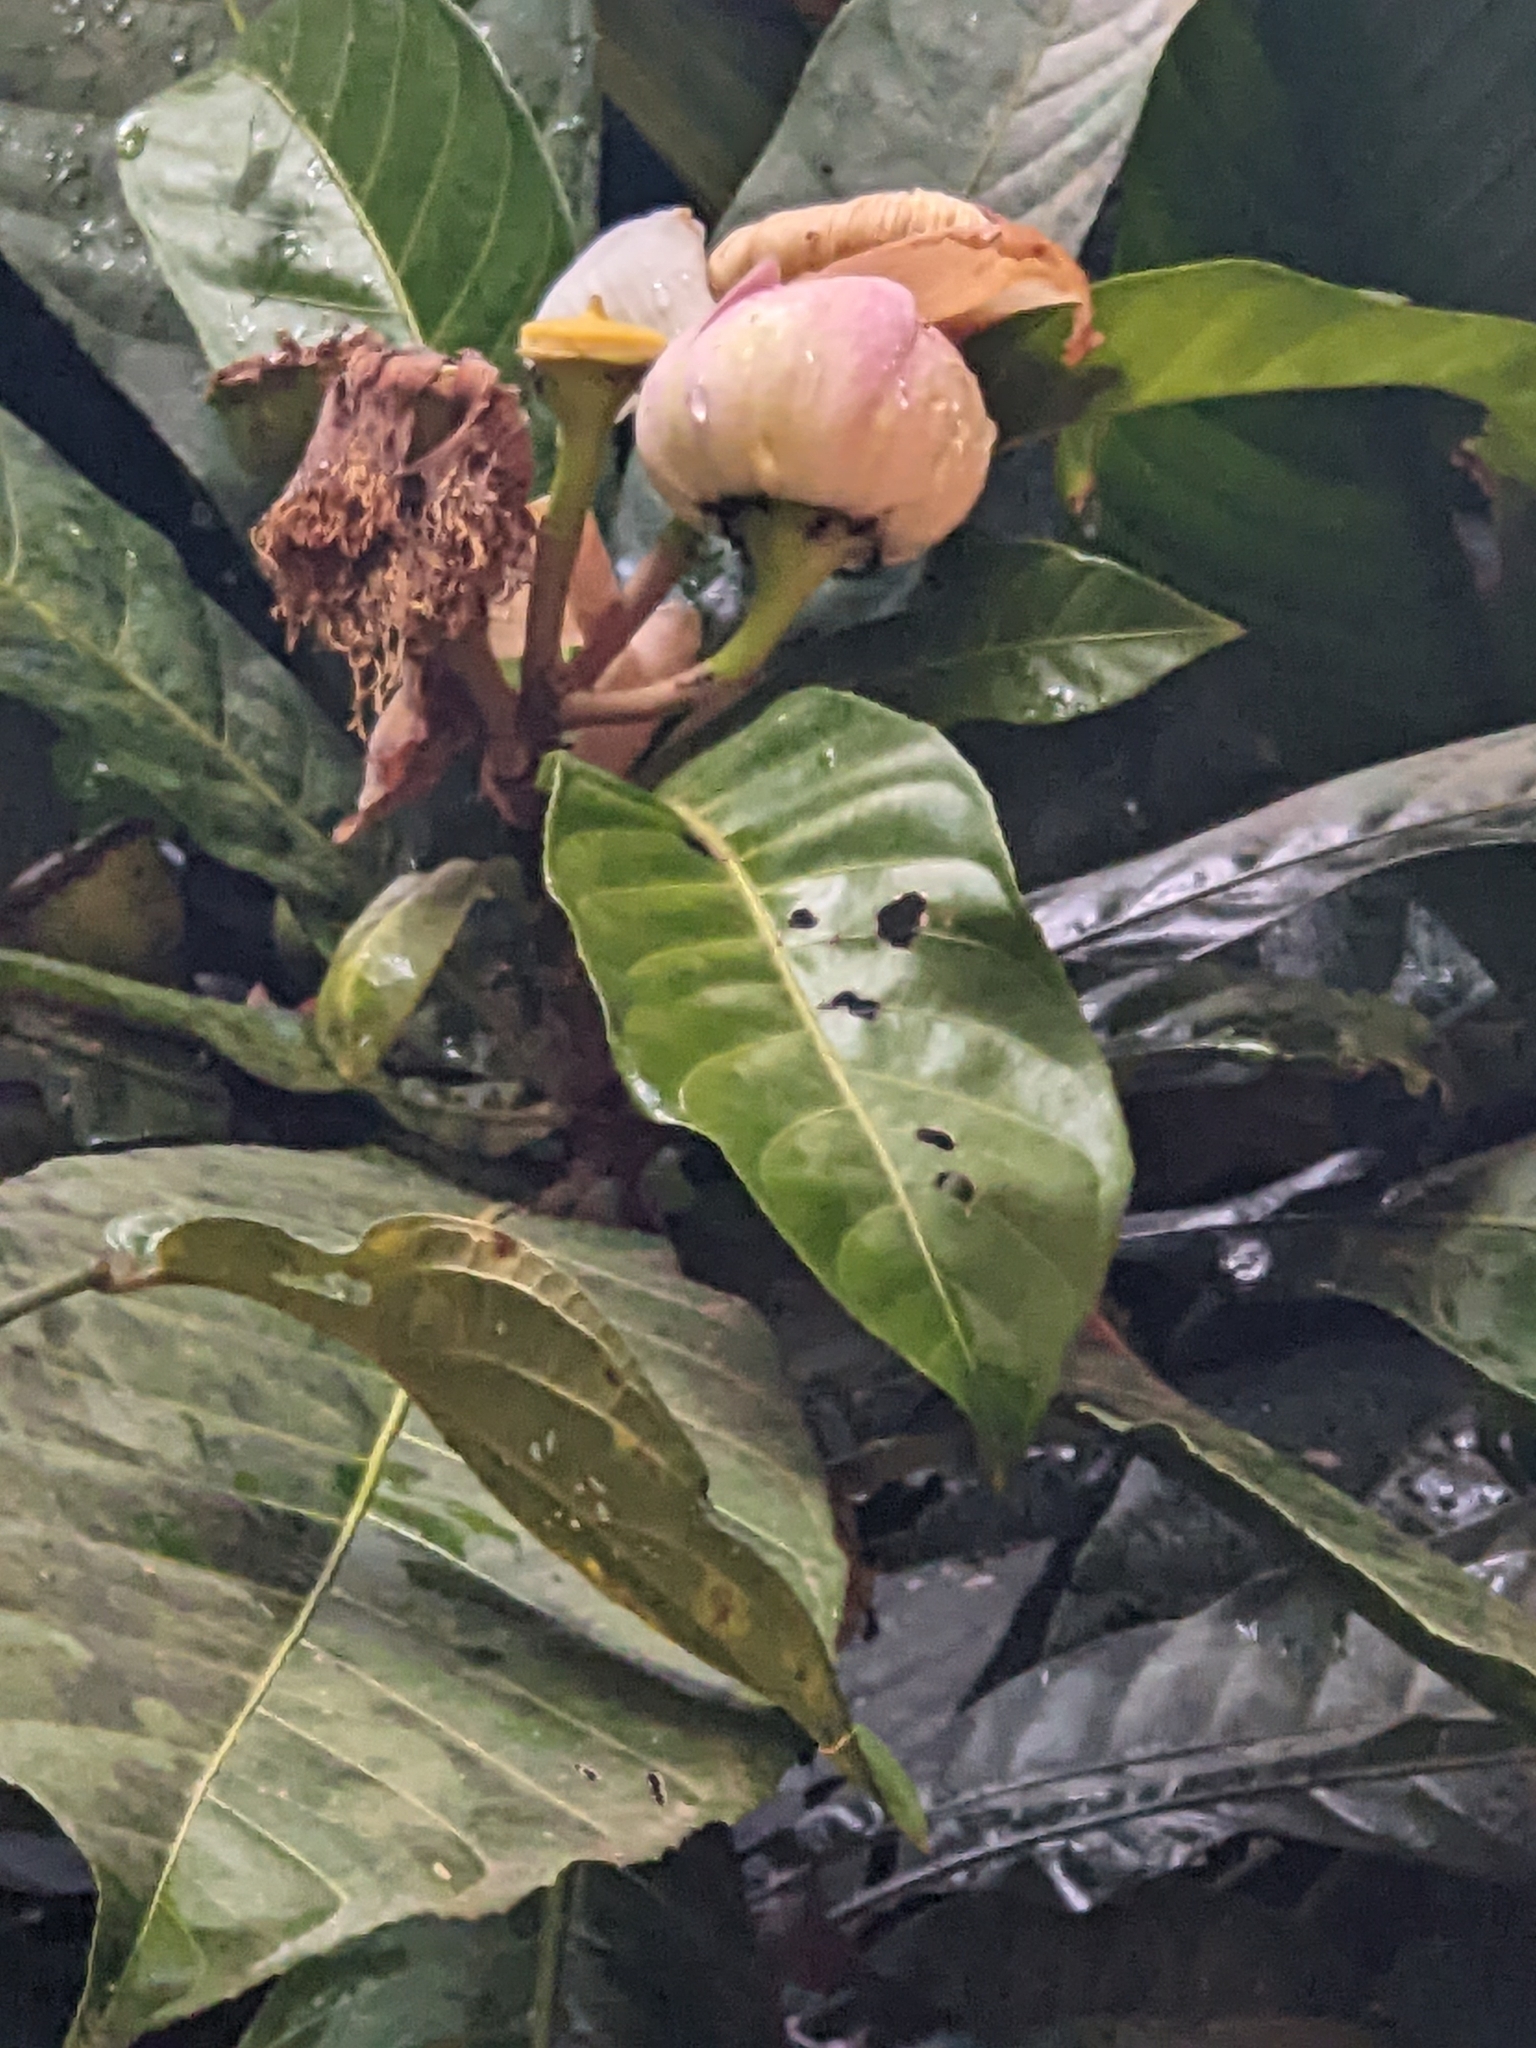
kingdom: Plantae
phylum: Tracheophyta
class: Magnoliopsida
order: Ericales
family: Lecythidaceae
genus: Gustavia
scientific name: Gustavia augusta
